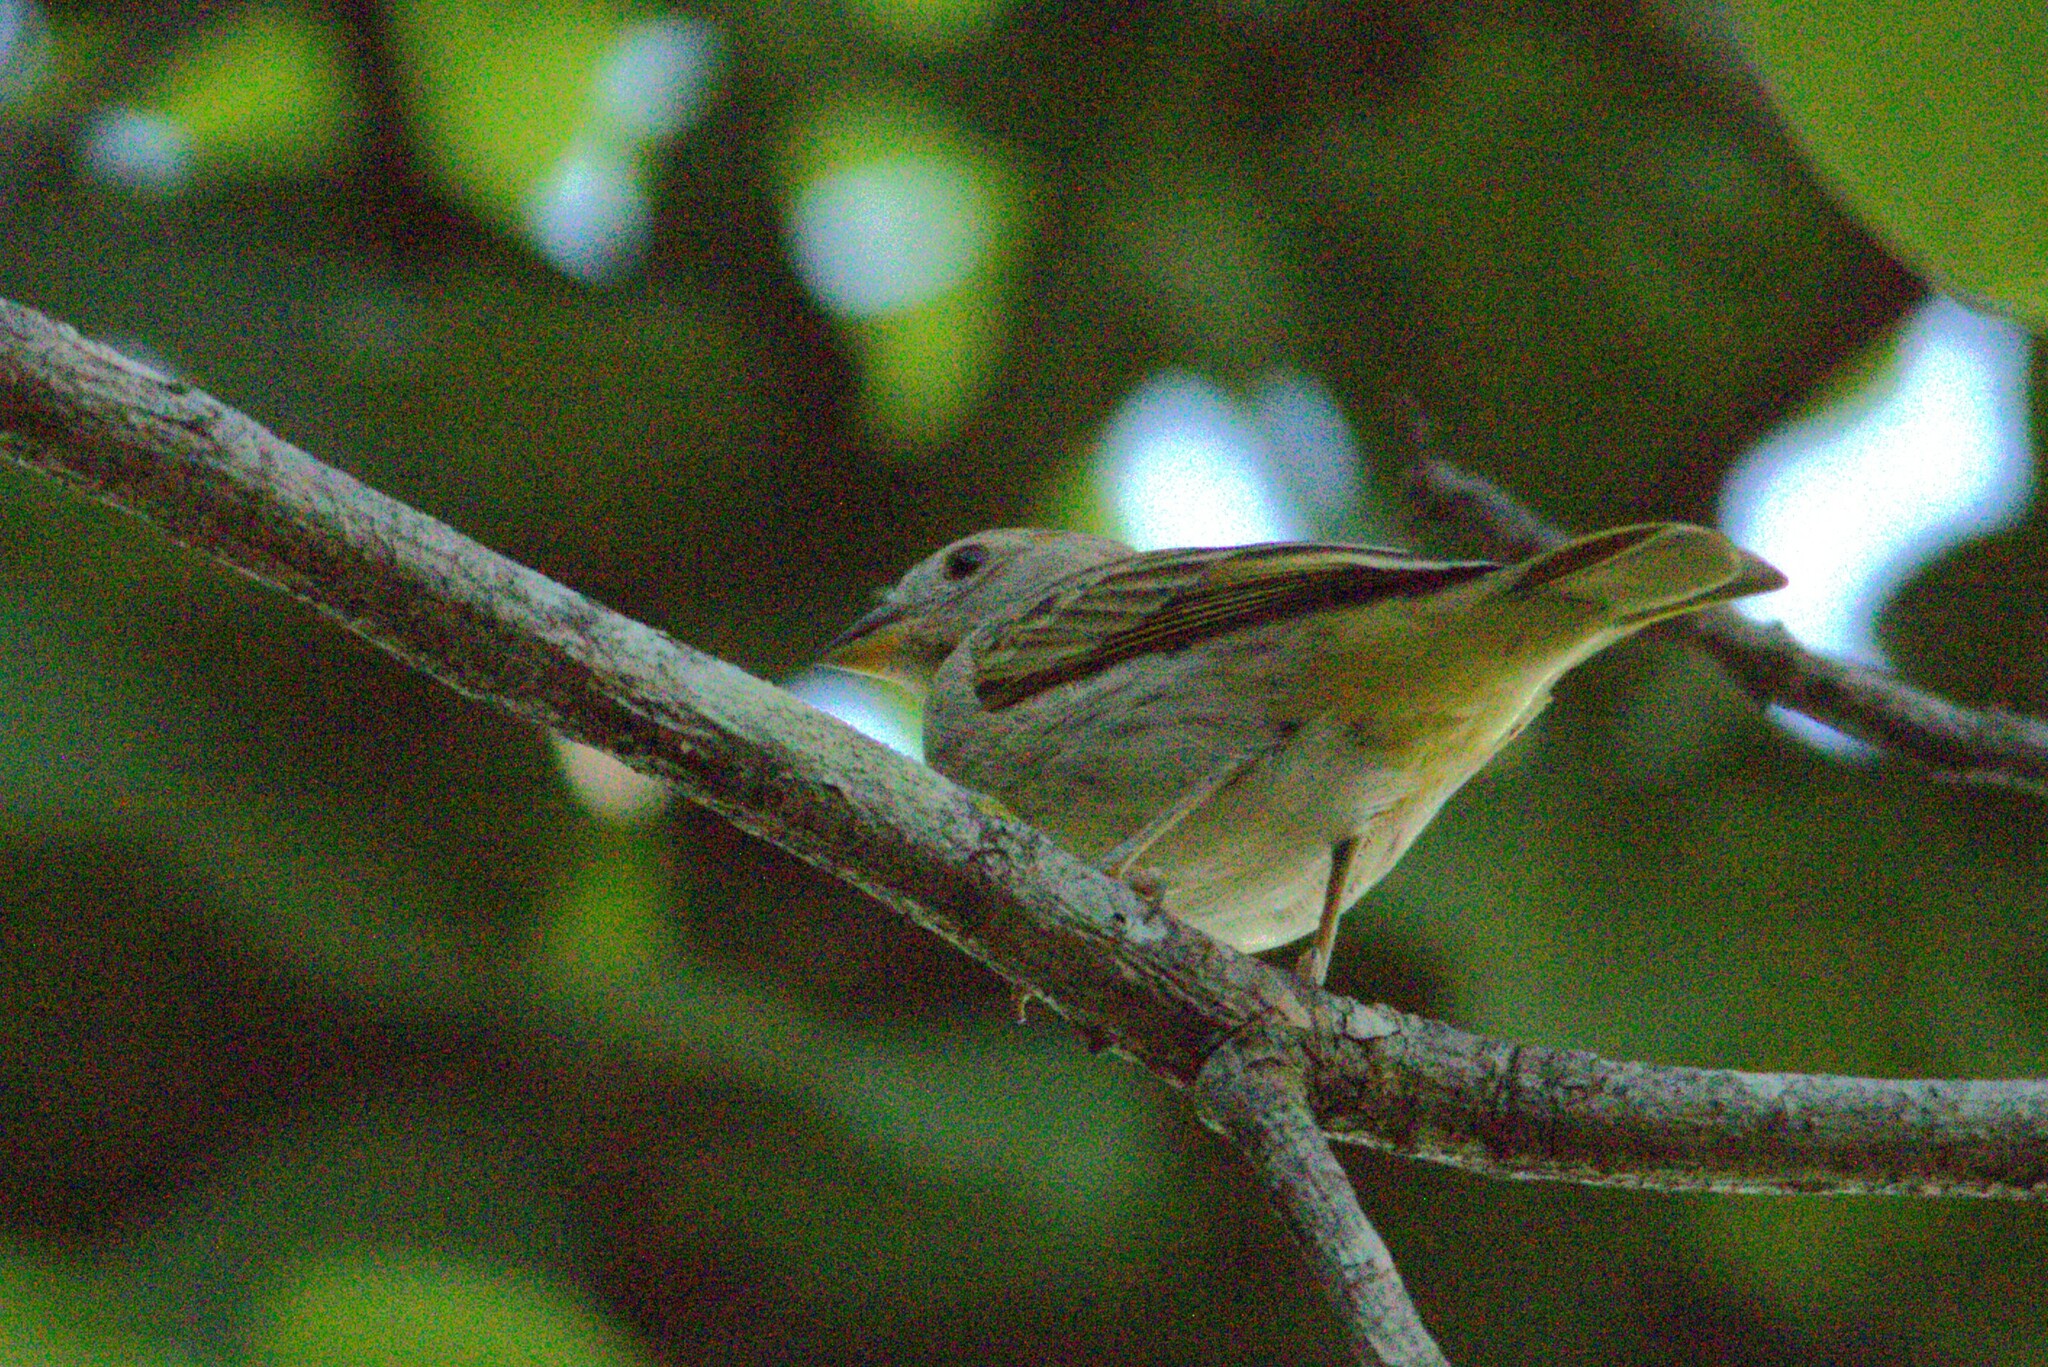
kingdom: Animalia
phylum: Chordata
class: Aves
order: Passeriformes
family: Thraupidae
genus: Sicalis
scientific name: Sicalis flaveola
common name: Saffron finch
